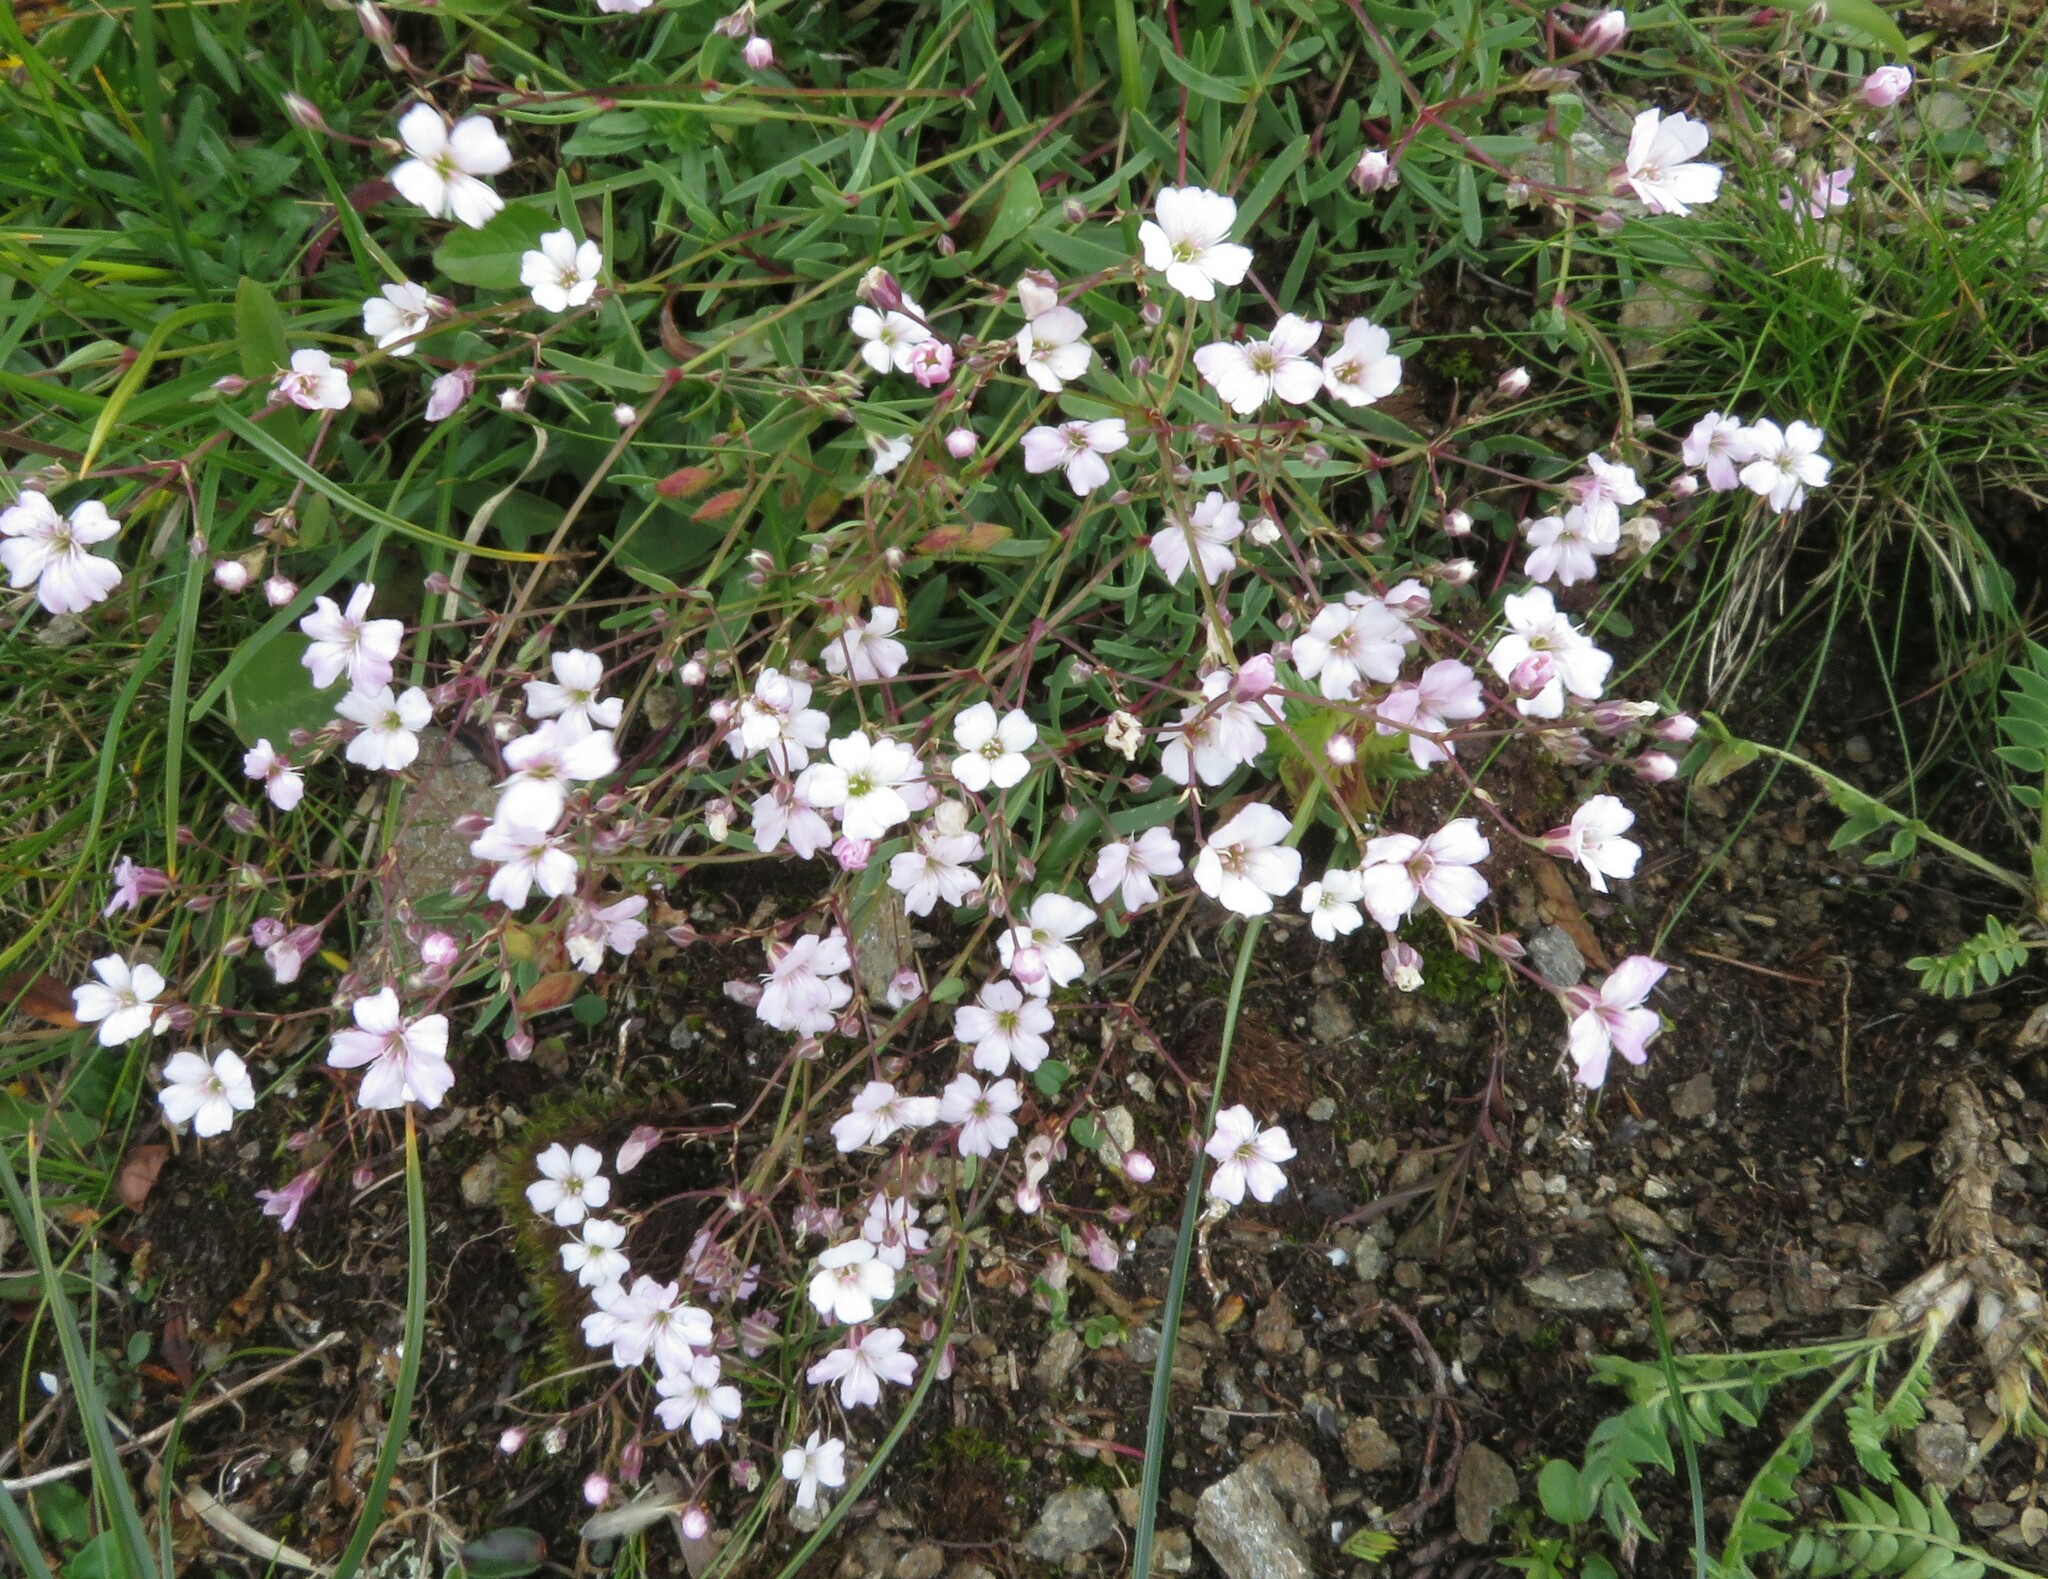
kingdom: Plantae
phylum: Tracheophyta
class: Magnoliopsida
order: Caryophyllales
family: Caryophyllaceae
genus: Gypsophila
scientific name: Gypsophila repens
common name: Creeping baby's-breath
